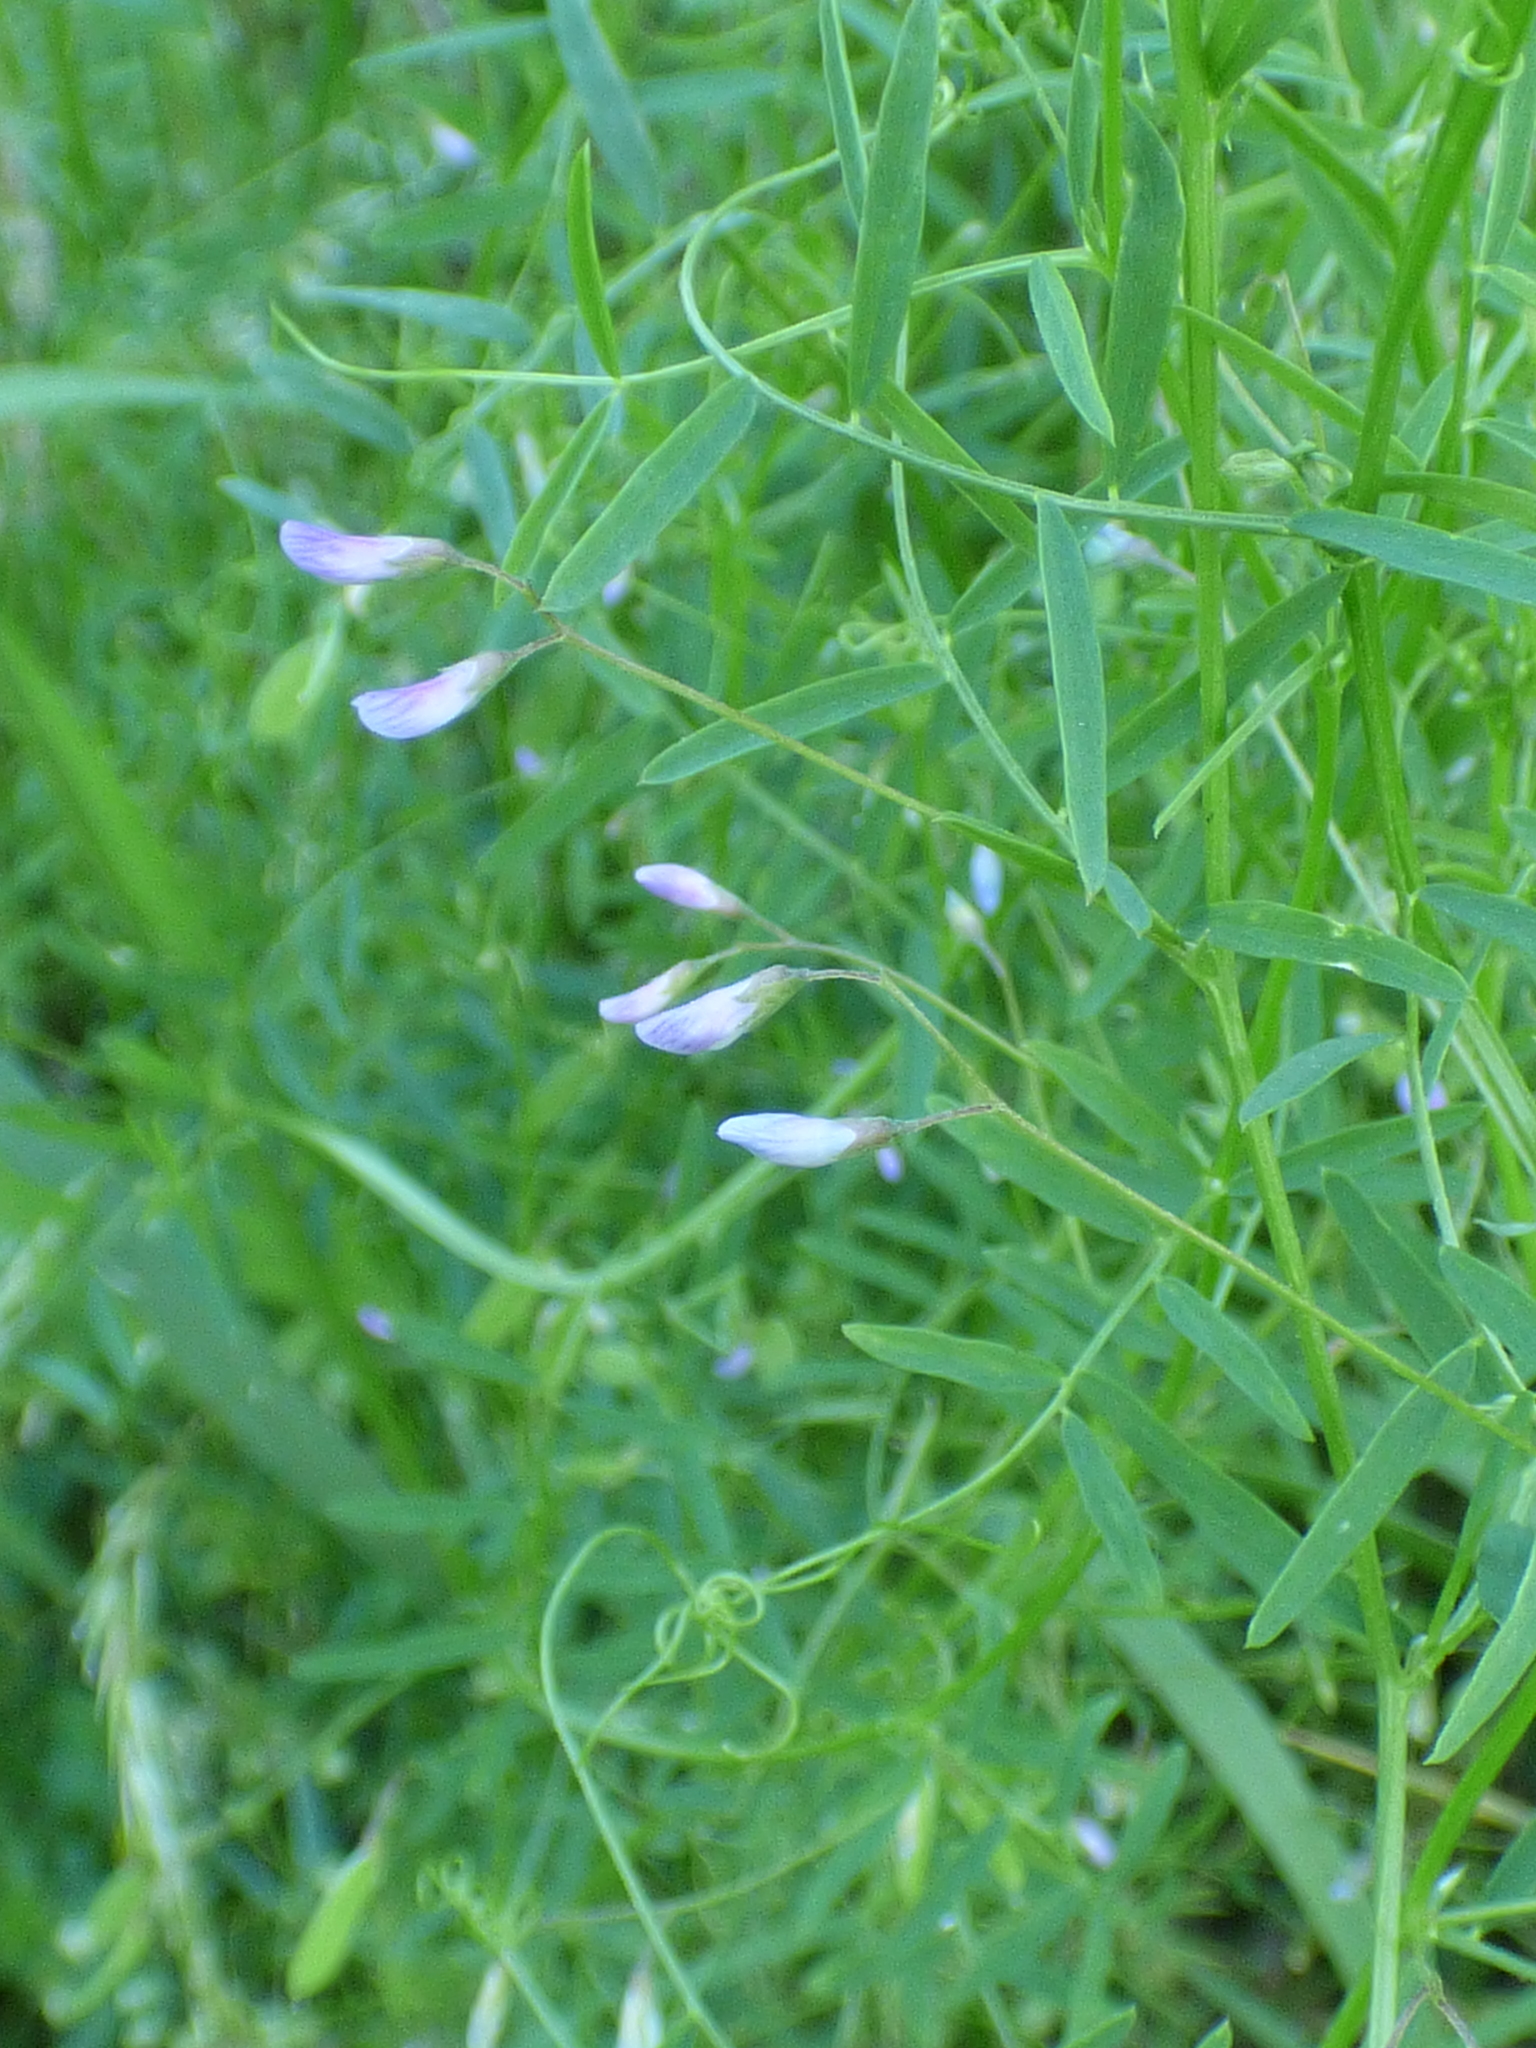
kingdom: Plantae
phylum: Tracheophyta
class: Magnoliopsida
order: Fabales
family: Fabaceae
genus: Vicia
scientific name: Vicia tetrasperma
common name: Smooth tare
